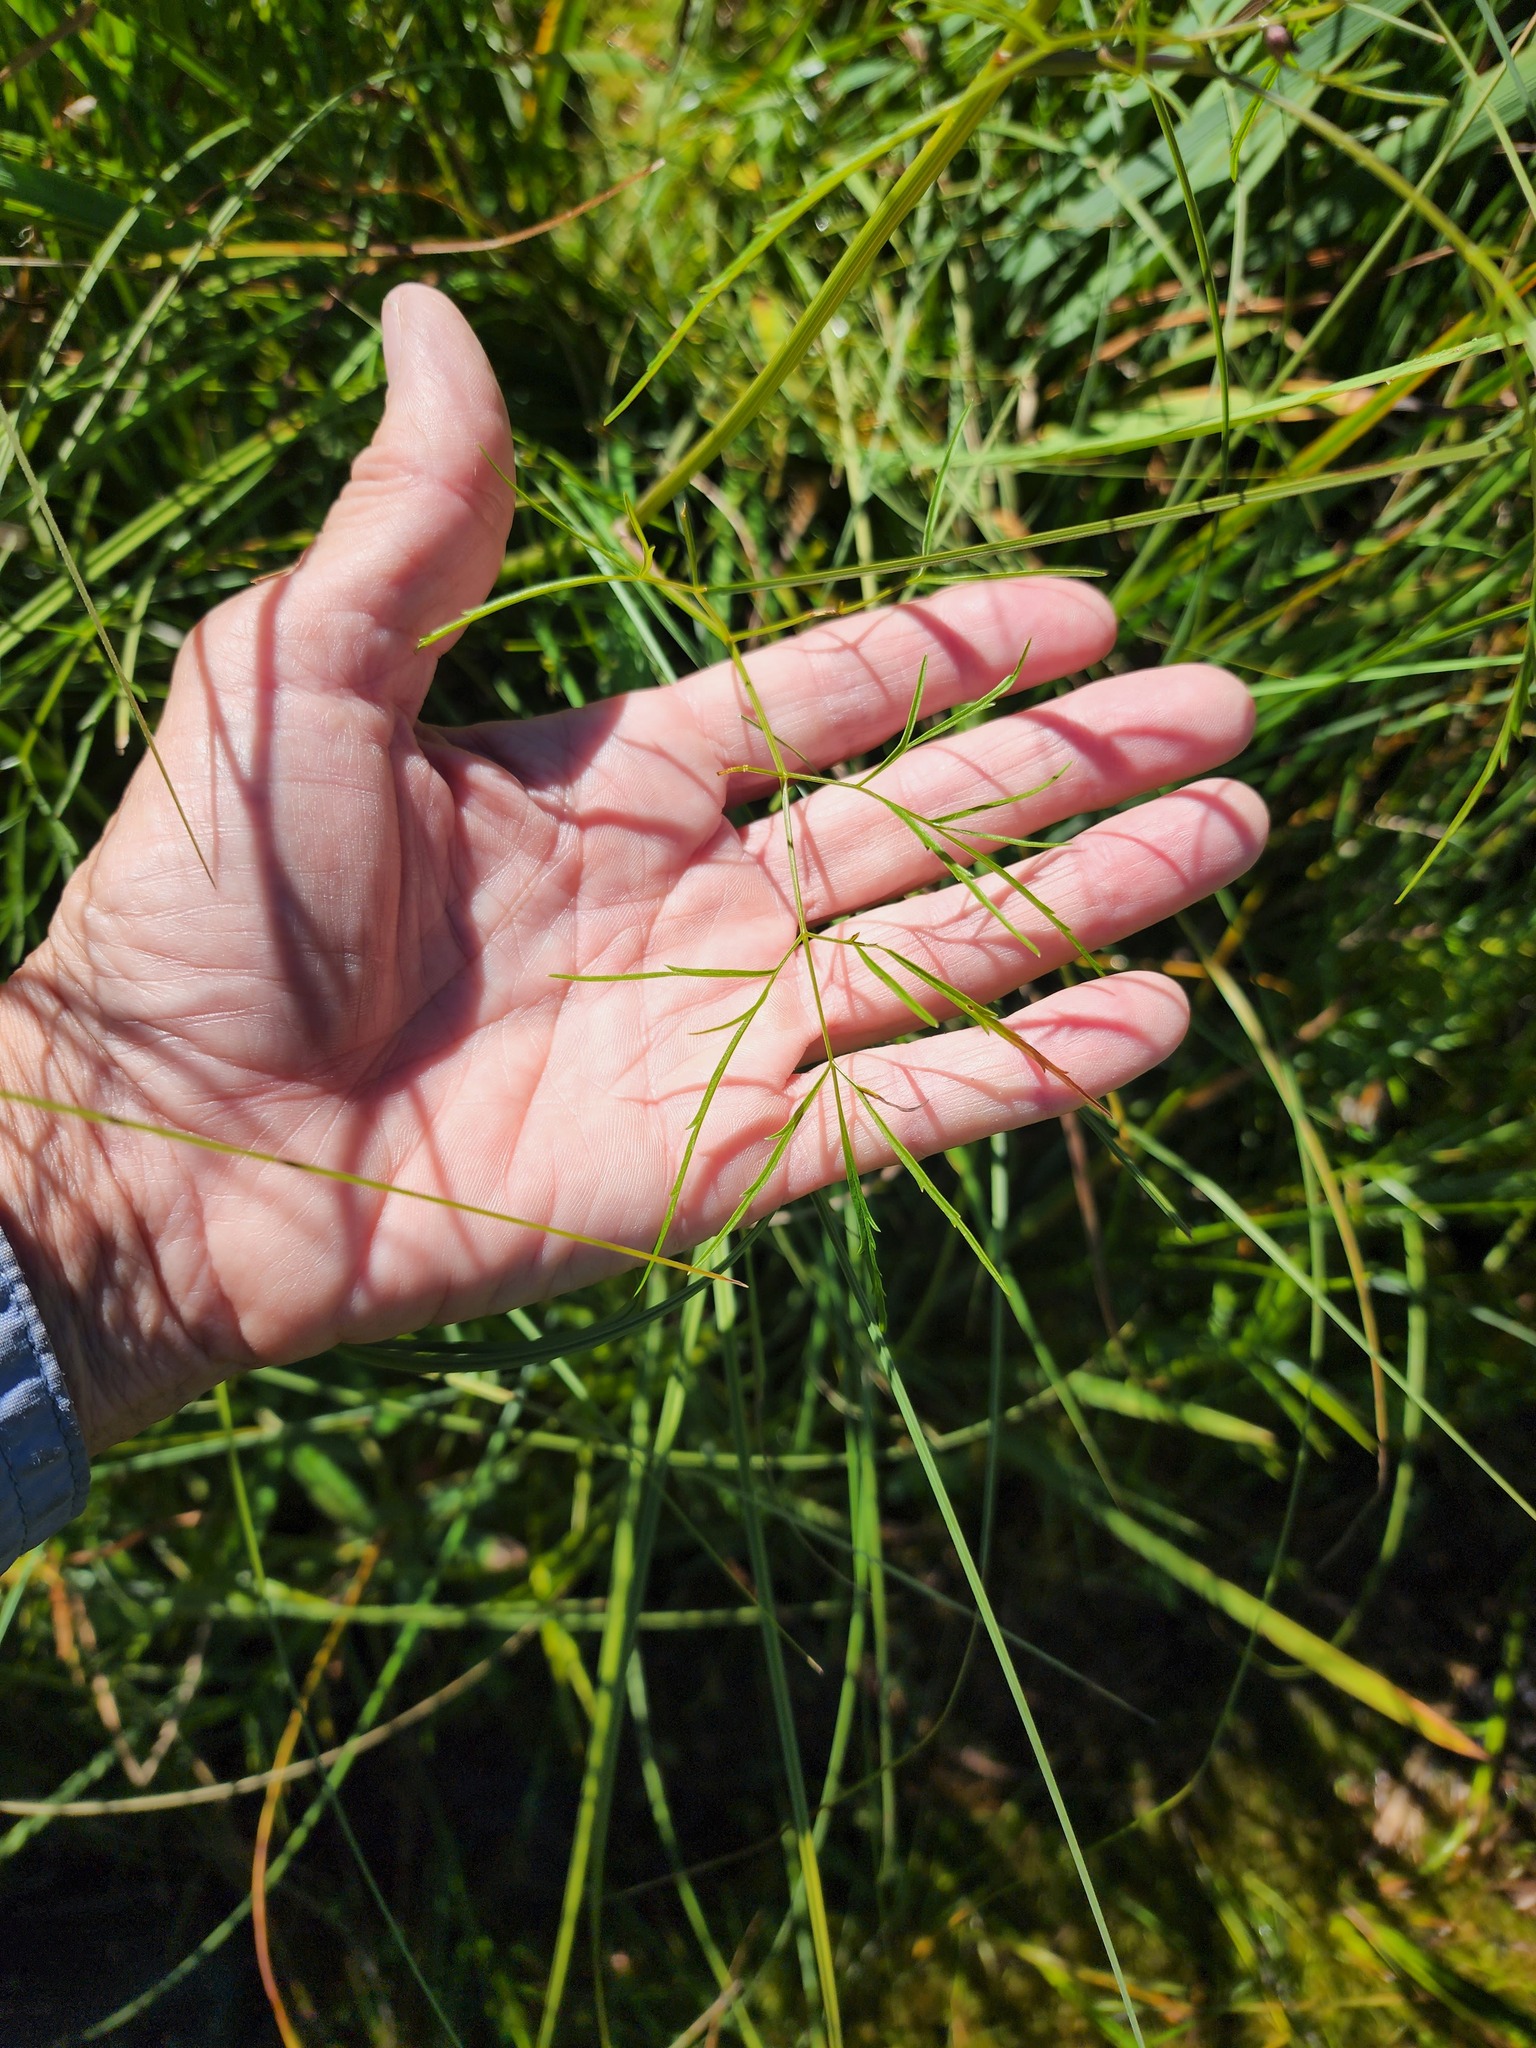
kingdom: Plantae
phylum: Tracheophyta
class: Magnoliopsida
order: Apiales
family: Apiaceae
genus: Cicuta
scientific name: Cicuta bulbifera
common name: Bulb-bearing water-hemlock
